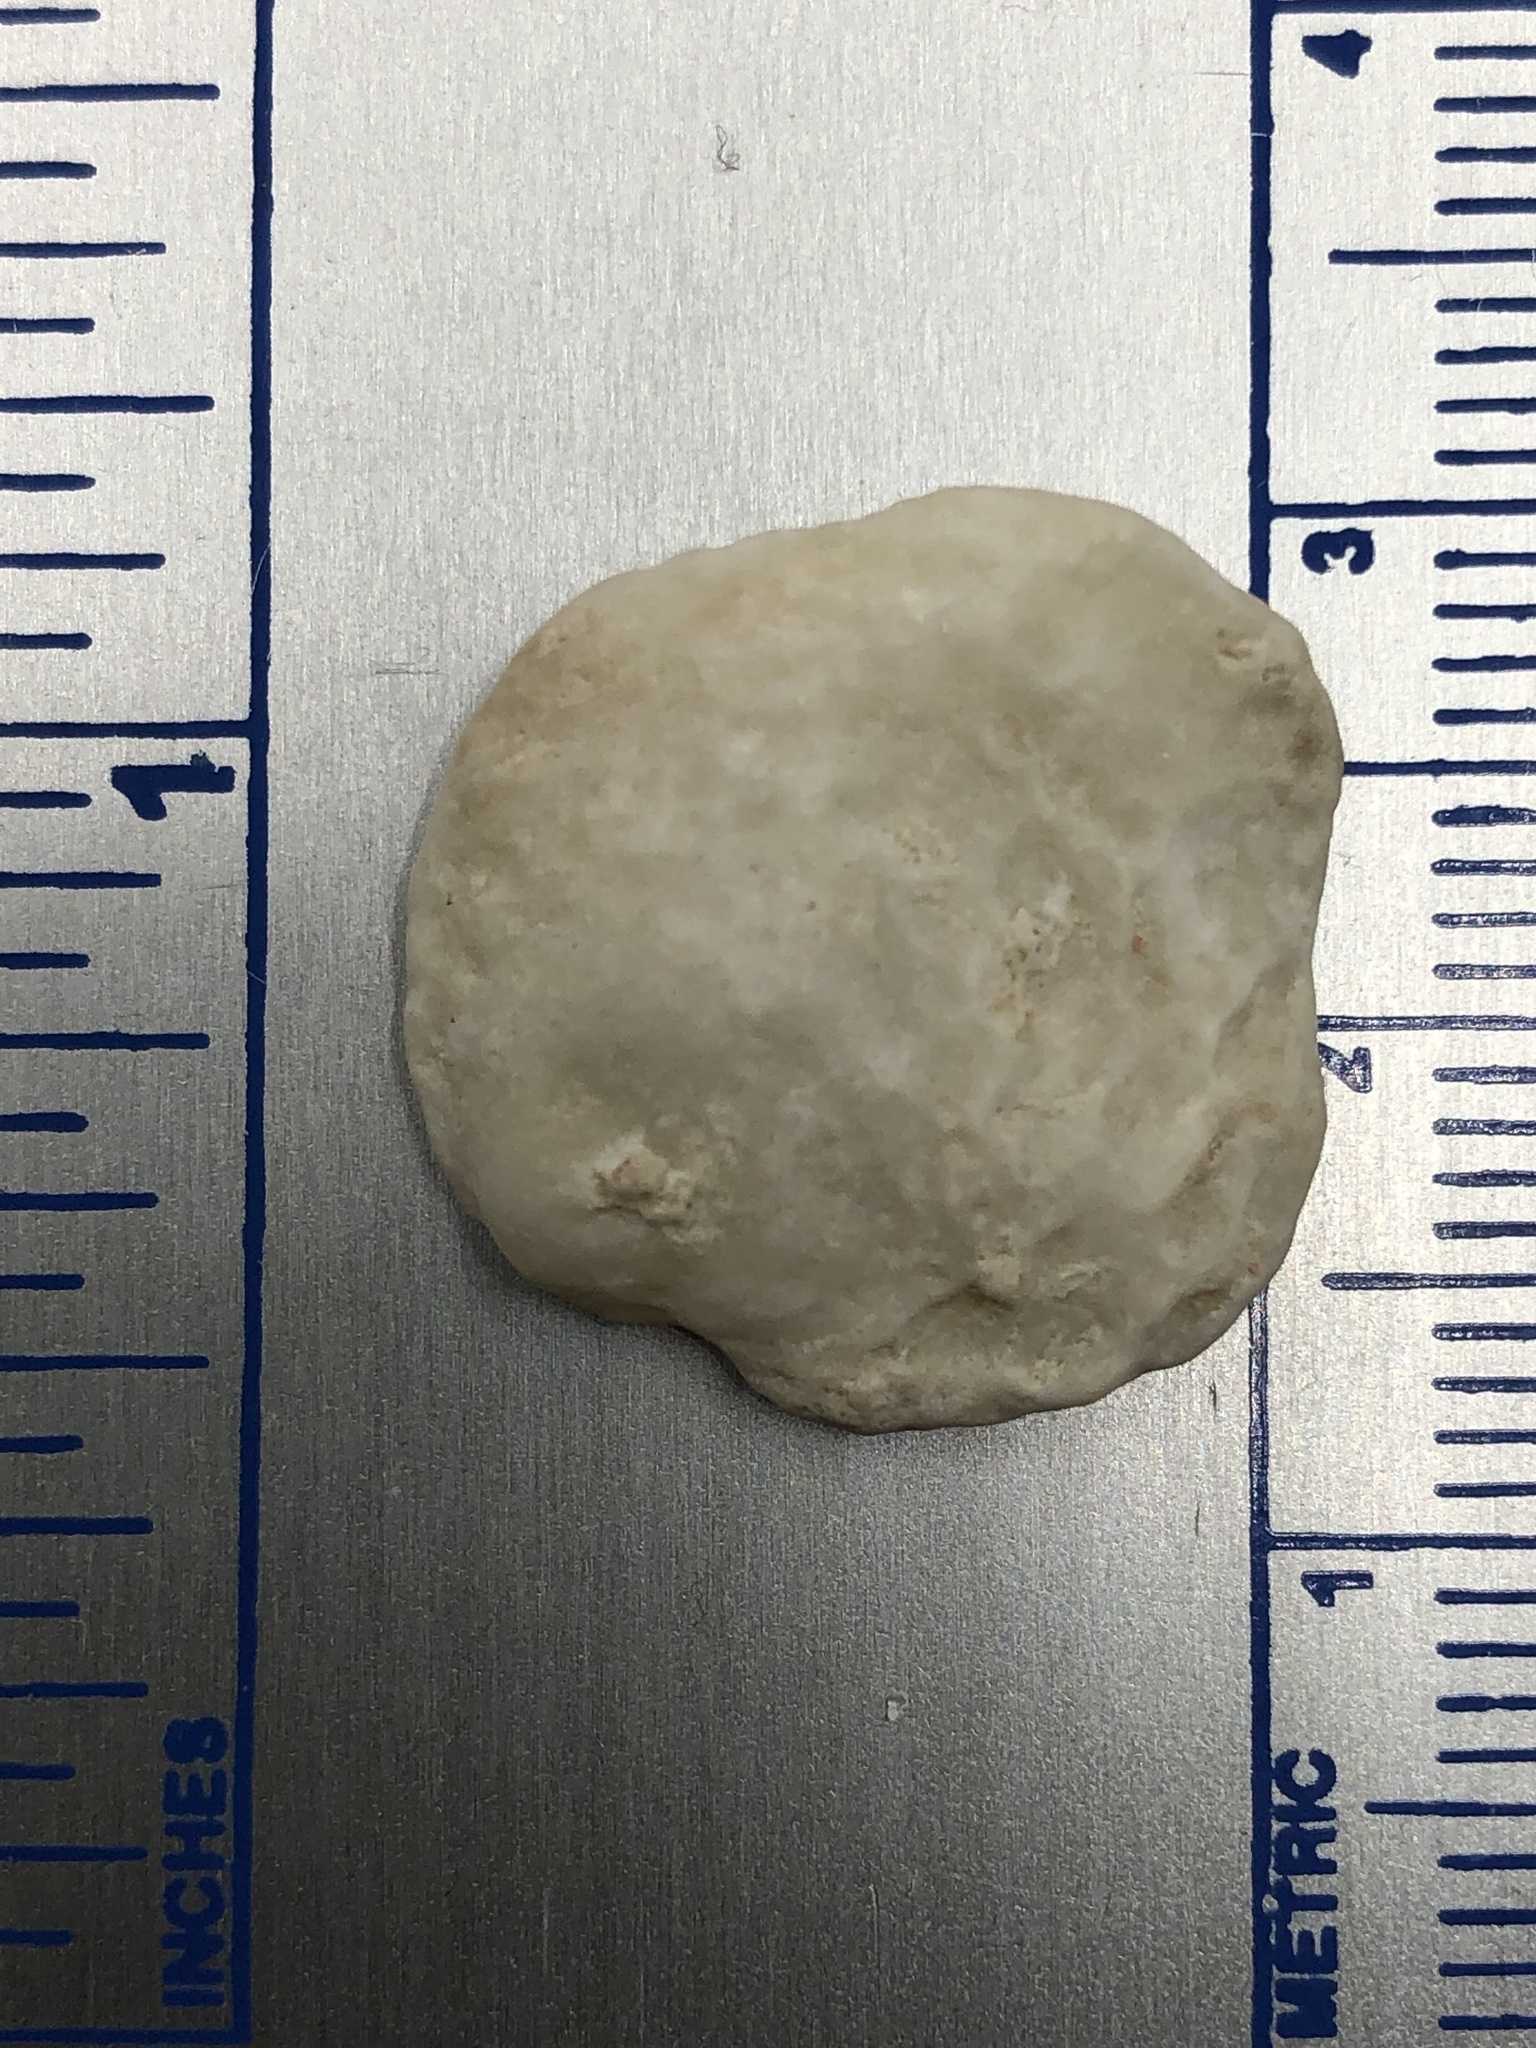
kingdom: Animalia
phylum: Mollusca
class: Bivalvia
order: Venerida
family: Chamidae
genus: Chama
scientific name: Chama congregata
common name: Corrugate jewelbox
